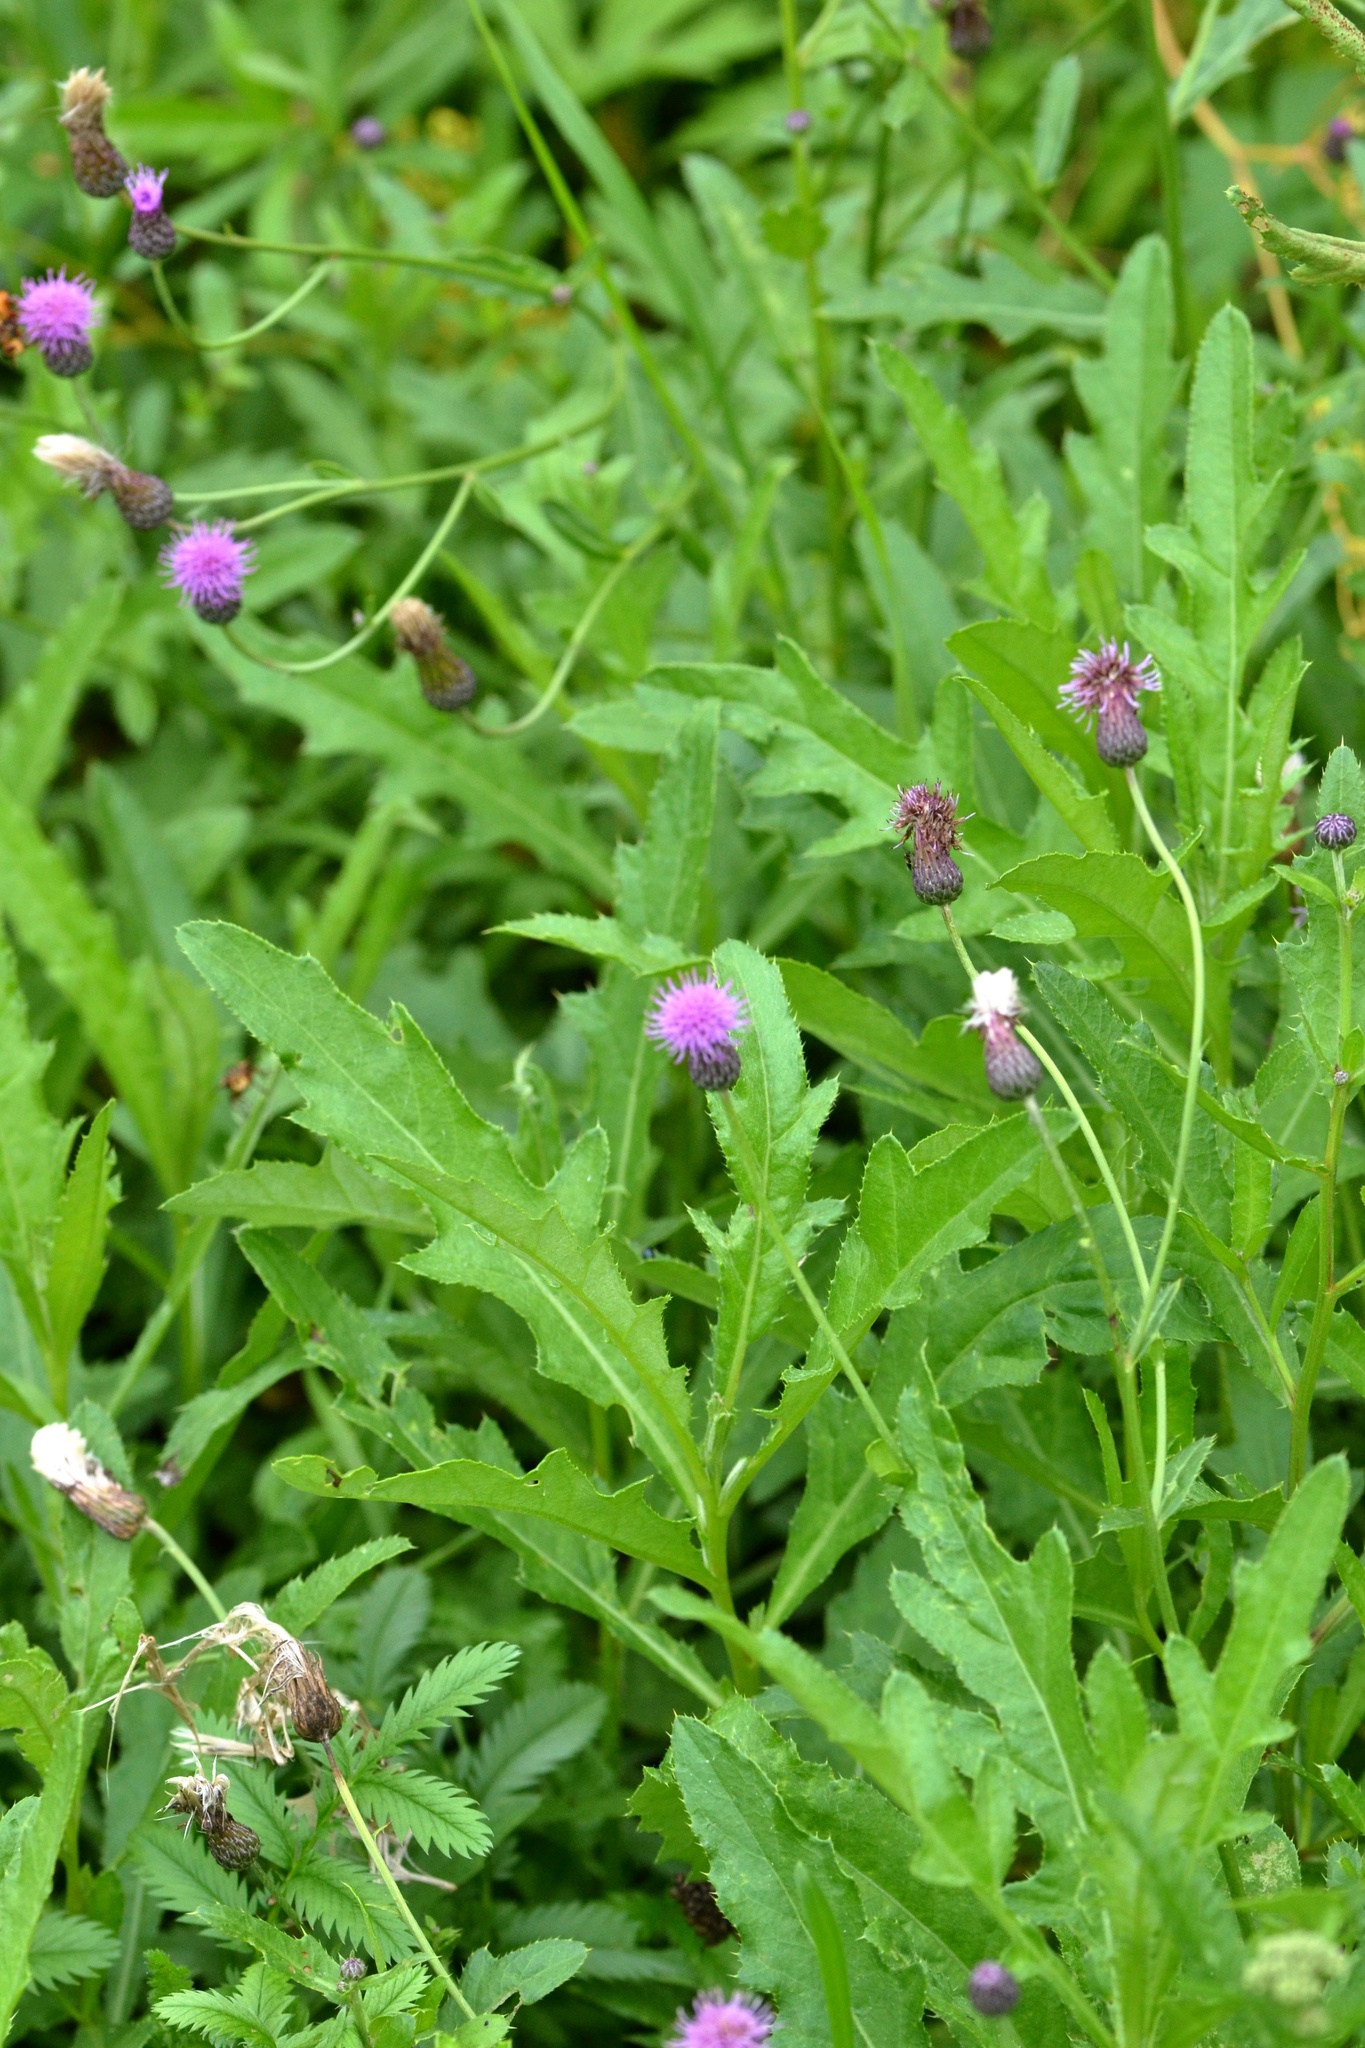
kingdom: Plantae
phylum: Tracheophyta
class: Magnoliopsida
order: Asterales
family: Asteraceae
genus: Cirsium
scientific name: Cirsium arvense
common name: Creeping thistle
